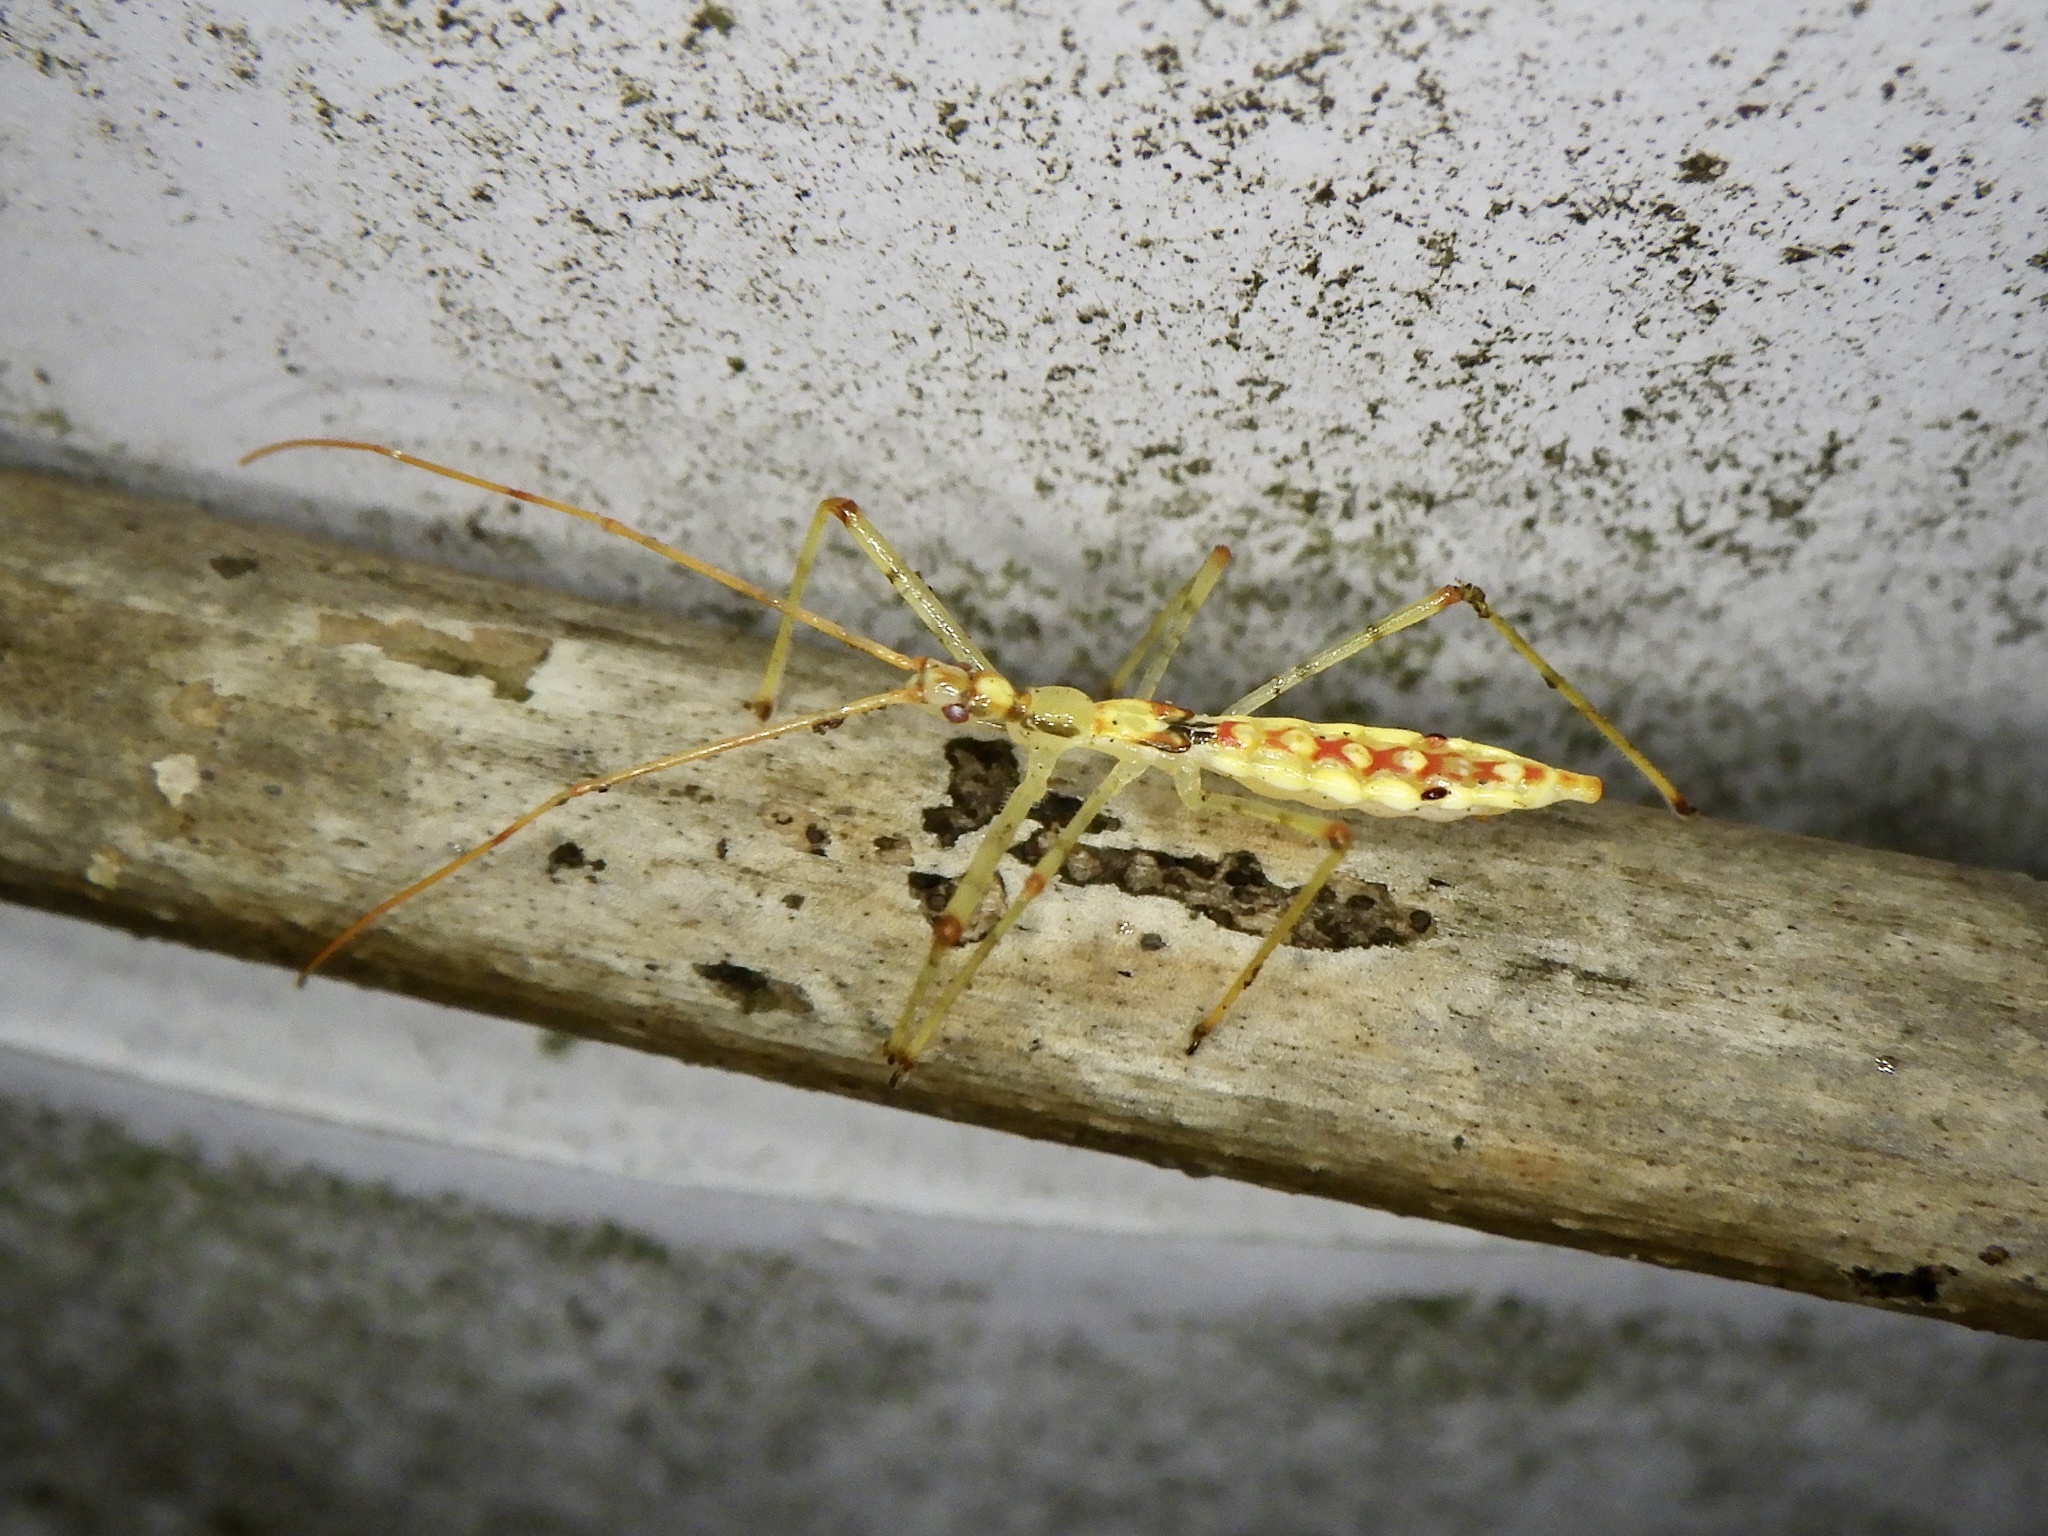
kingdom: Animalia
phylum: Arthropoda
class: Insecta
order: Hemiptera
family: Reduviidae
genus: Serendiba
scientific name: Serendiba staliana
